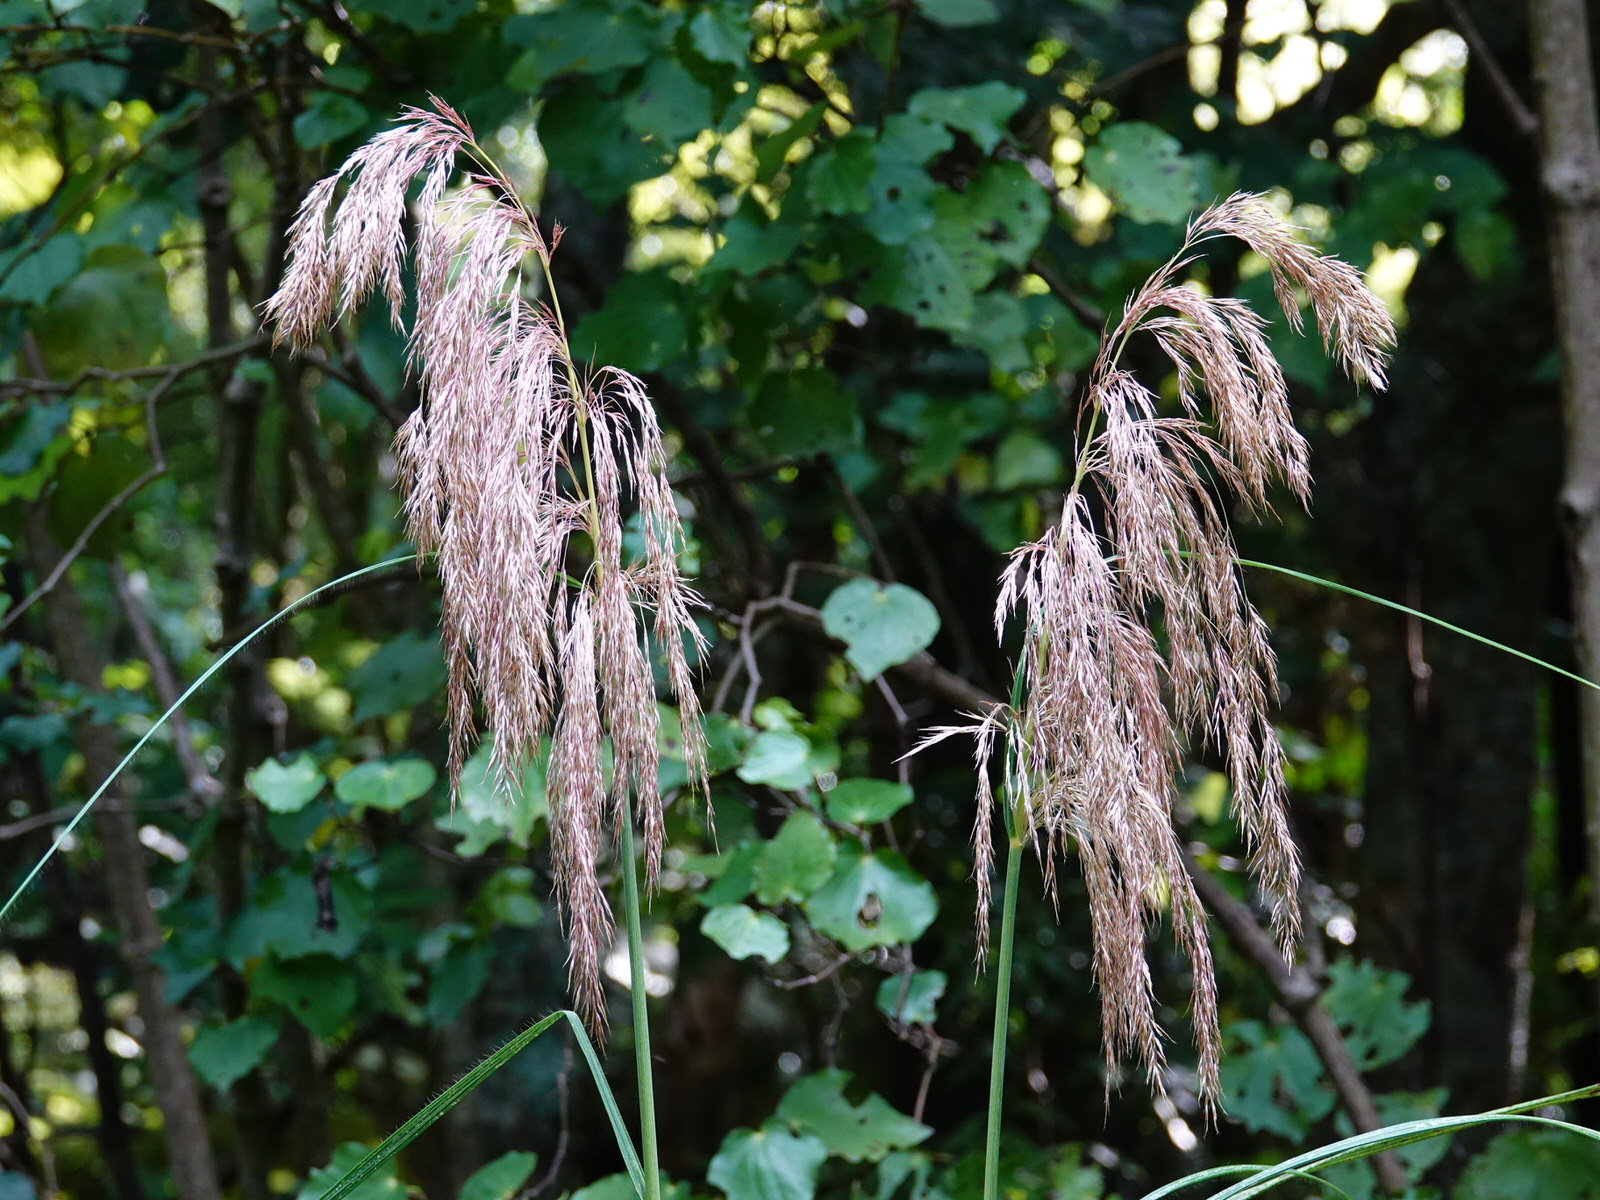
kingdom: Plantae
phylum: Tracheophyta
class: Liliopsida
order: Poales
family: Poaceae
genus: Austroderia
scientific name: Austroderia fulvida
